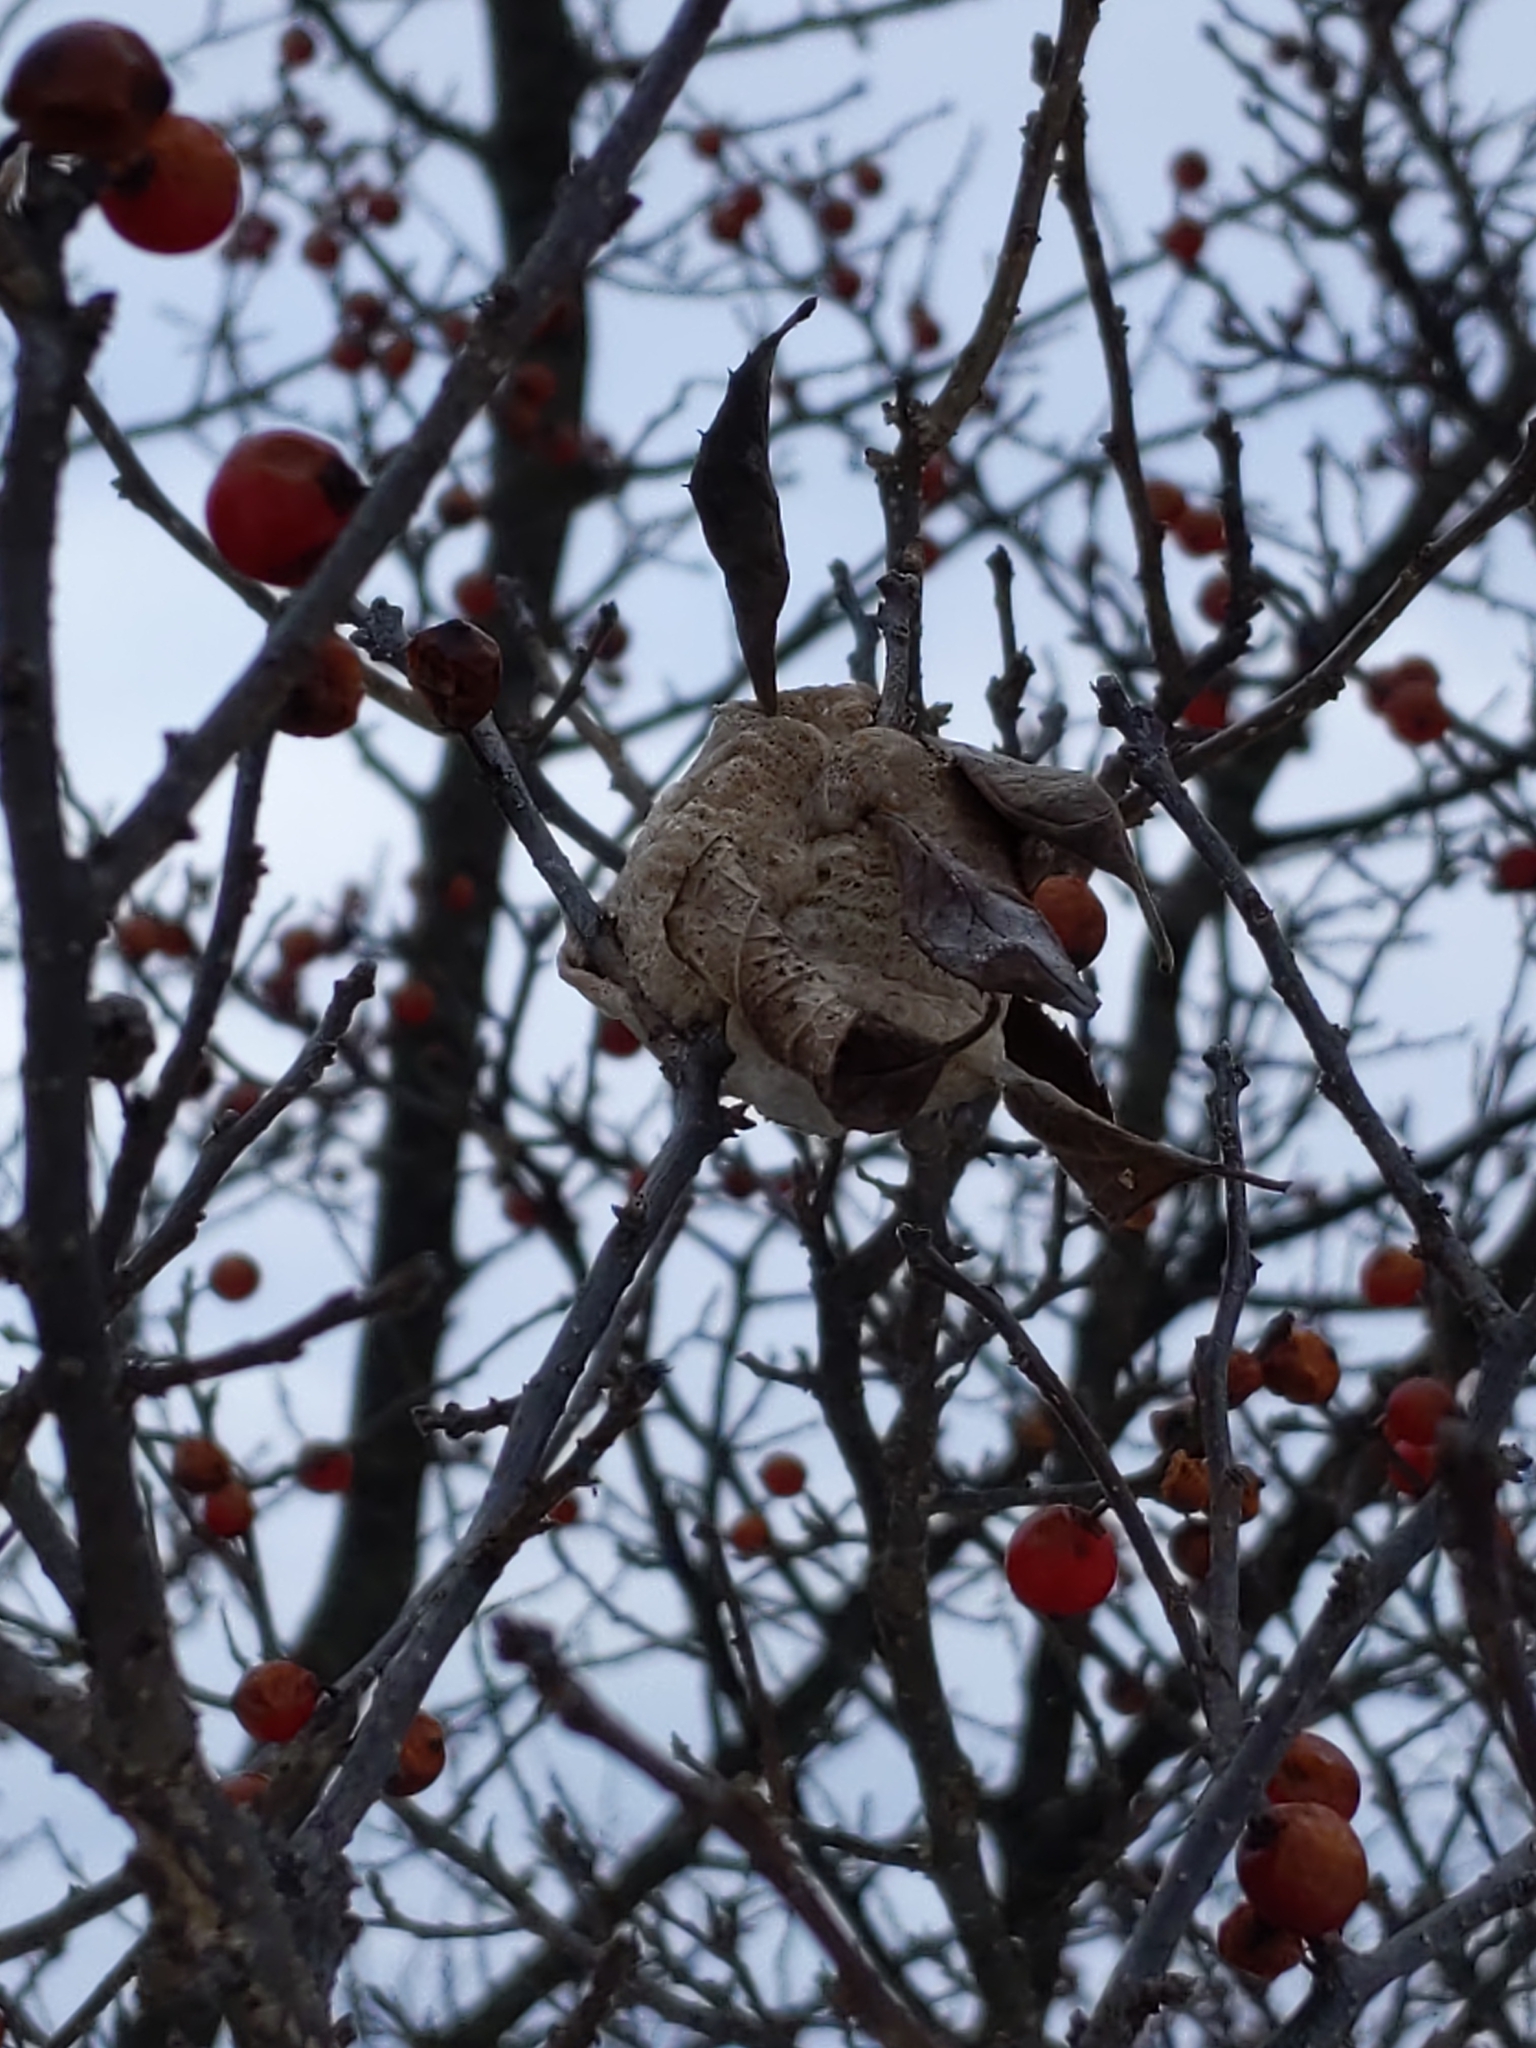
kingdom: Animalia
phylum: Arthropoda
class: Insecta
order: Mantodea
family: Mantidae
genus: Tenodera
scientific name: Tenodera sinensis
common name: Chinese mantis
